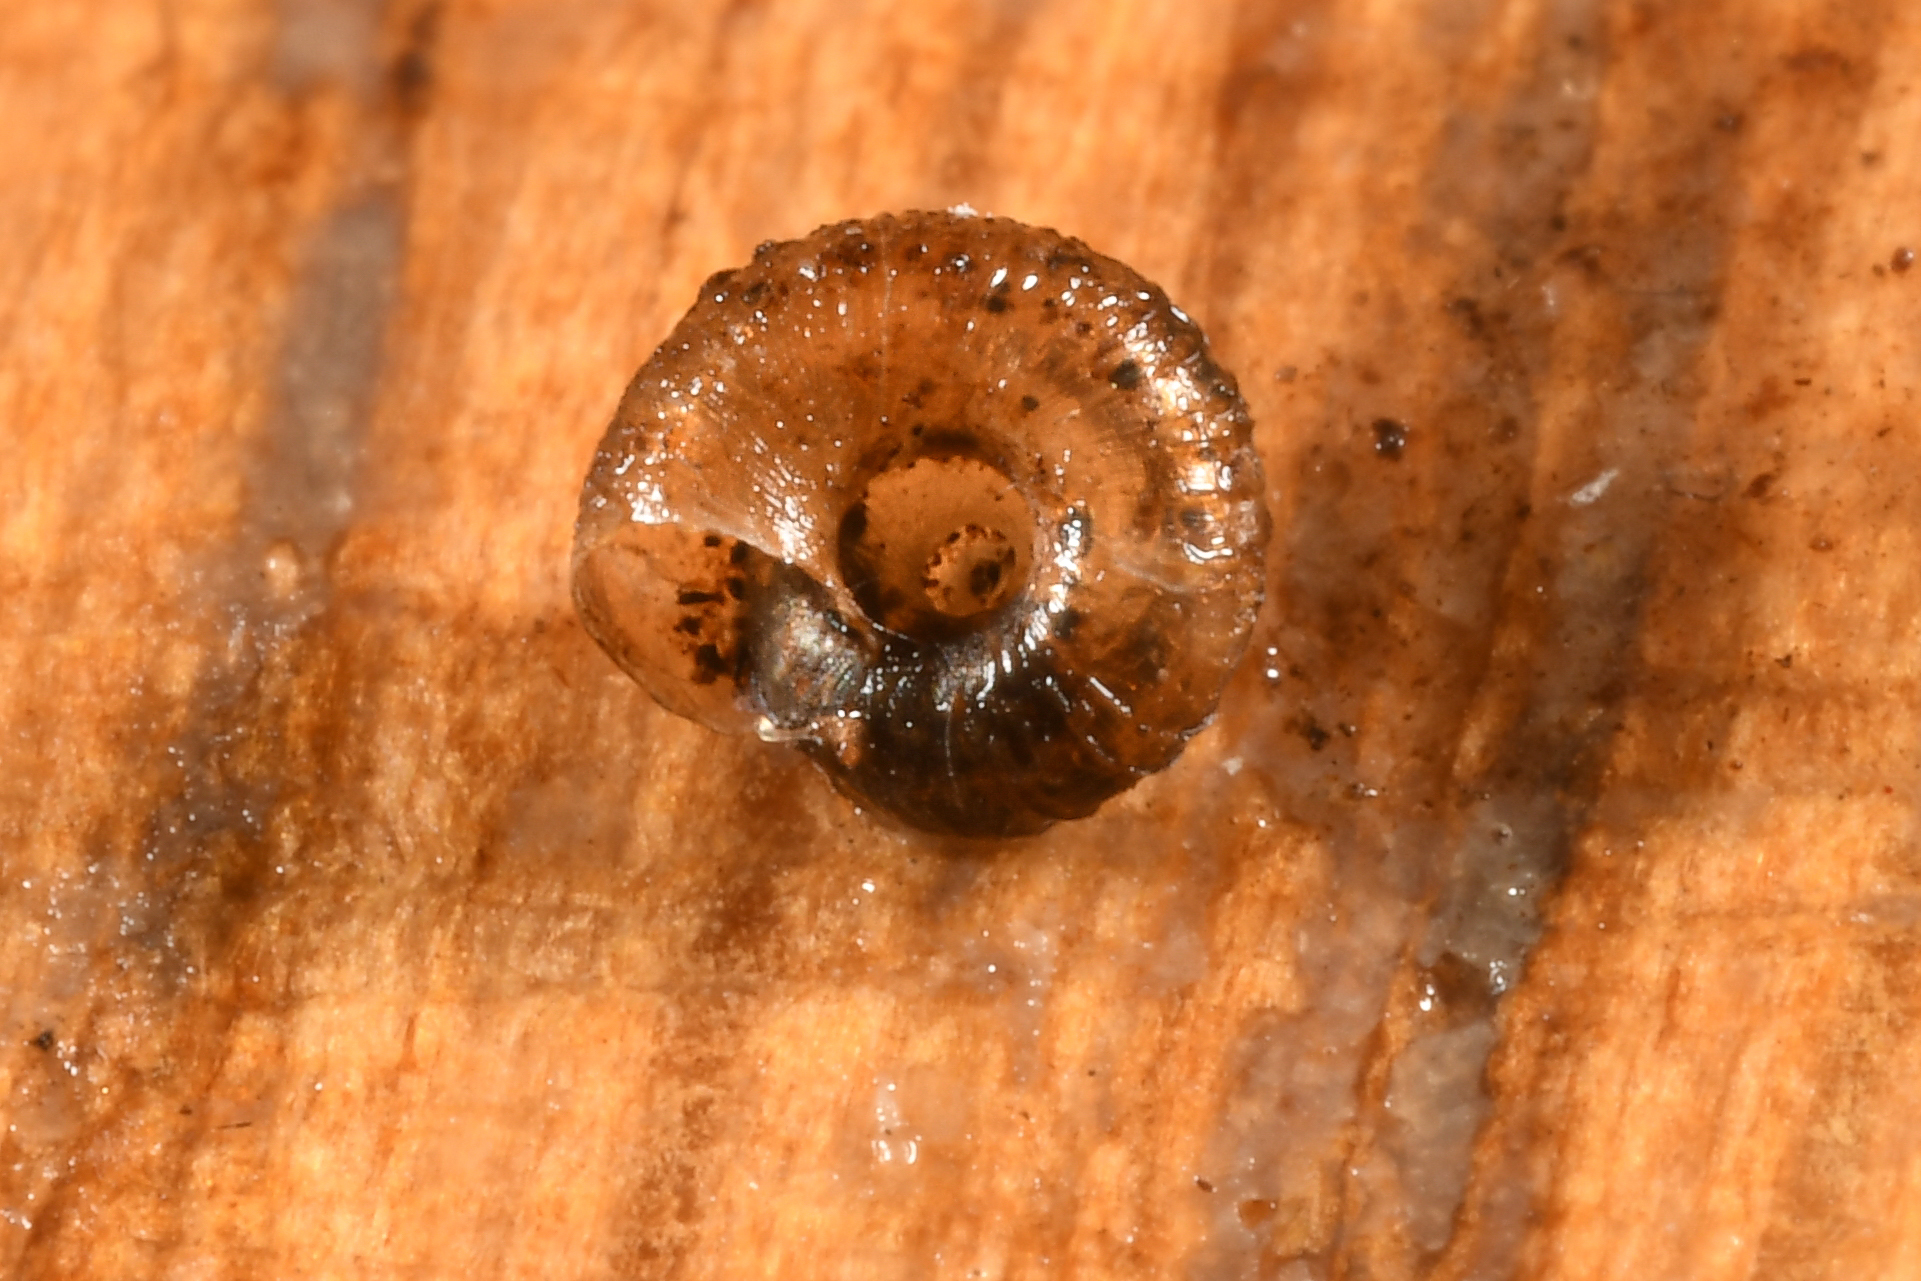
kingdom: Animalia
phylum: Mollusca
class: Gastropoda
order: Stylommatophora
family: Punctidae
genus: Paralaoma
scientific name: Paralaoma servilis
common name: Pinhead spot
